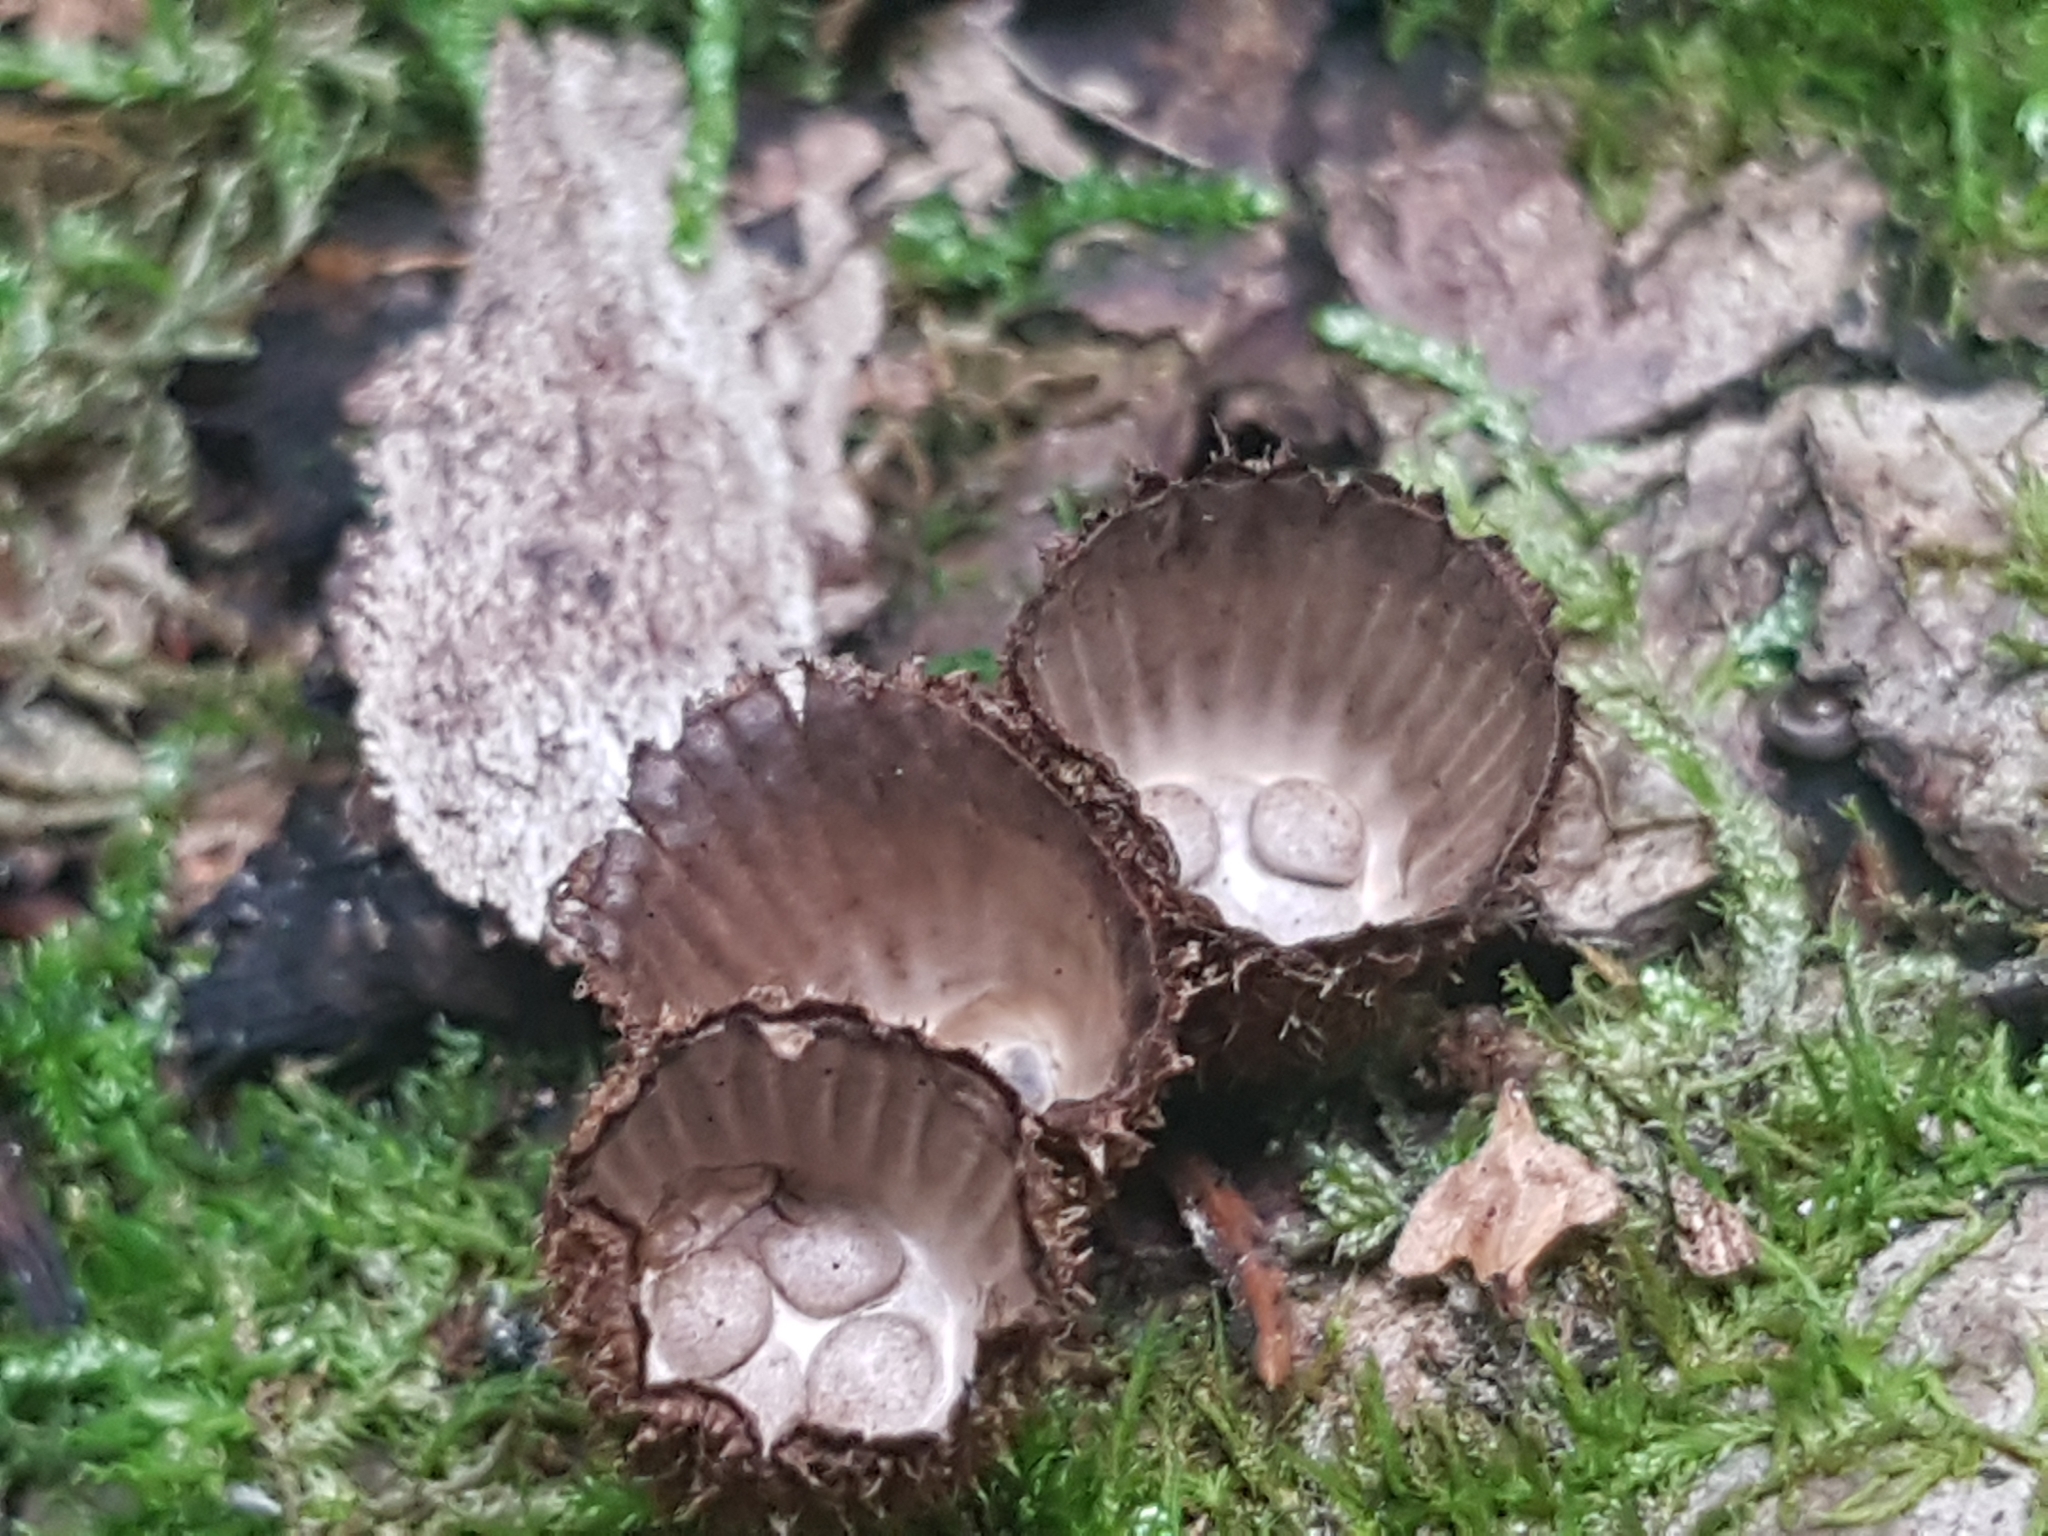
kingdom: Fungi
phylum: Basidiomycota
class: Agaricomycetes
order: Agaricales
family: Agaricaceae
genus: Cyathus
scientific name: Cyathus striatus
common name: Fluted bird's nest
